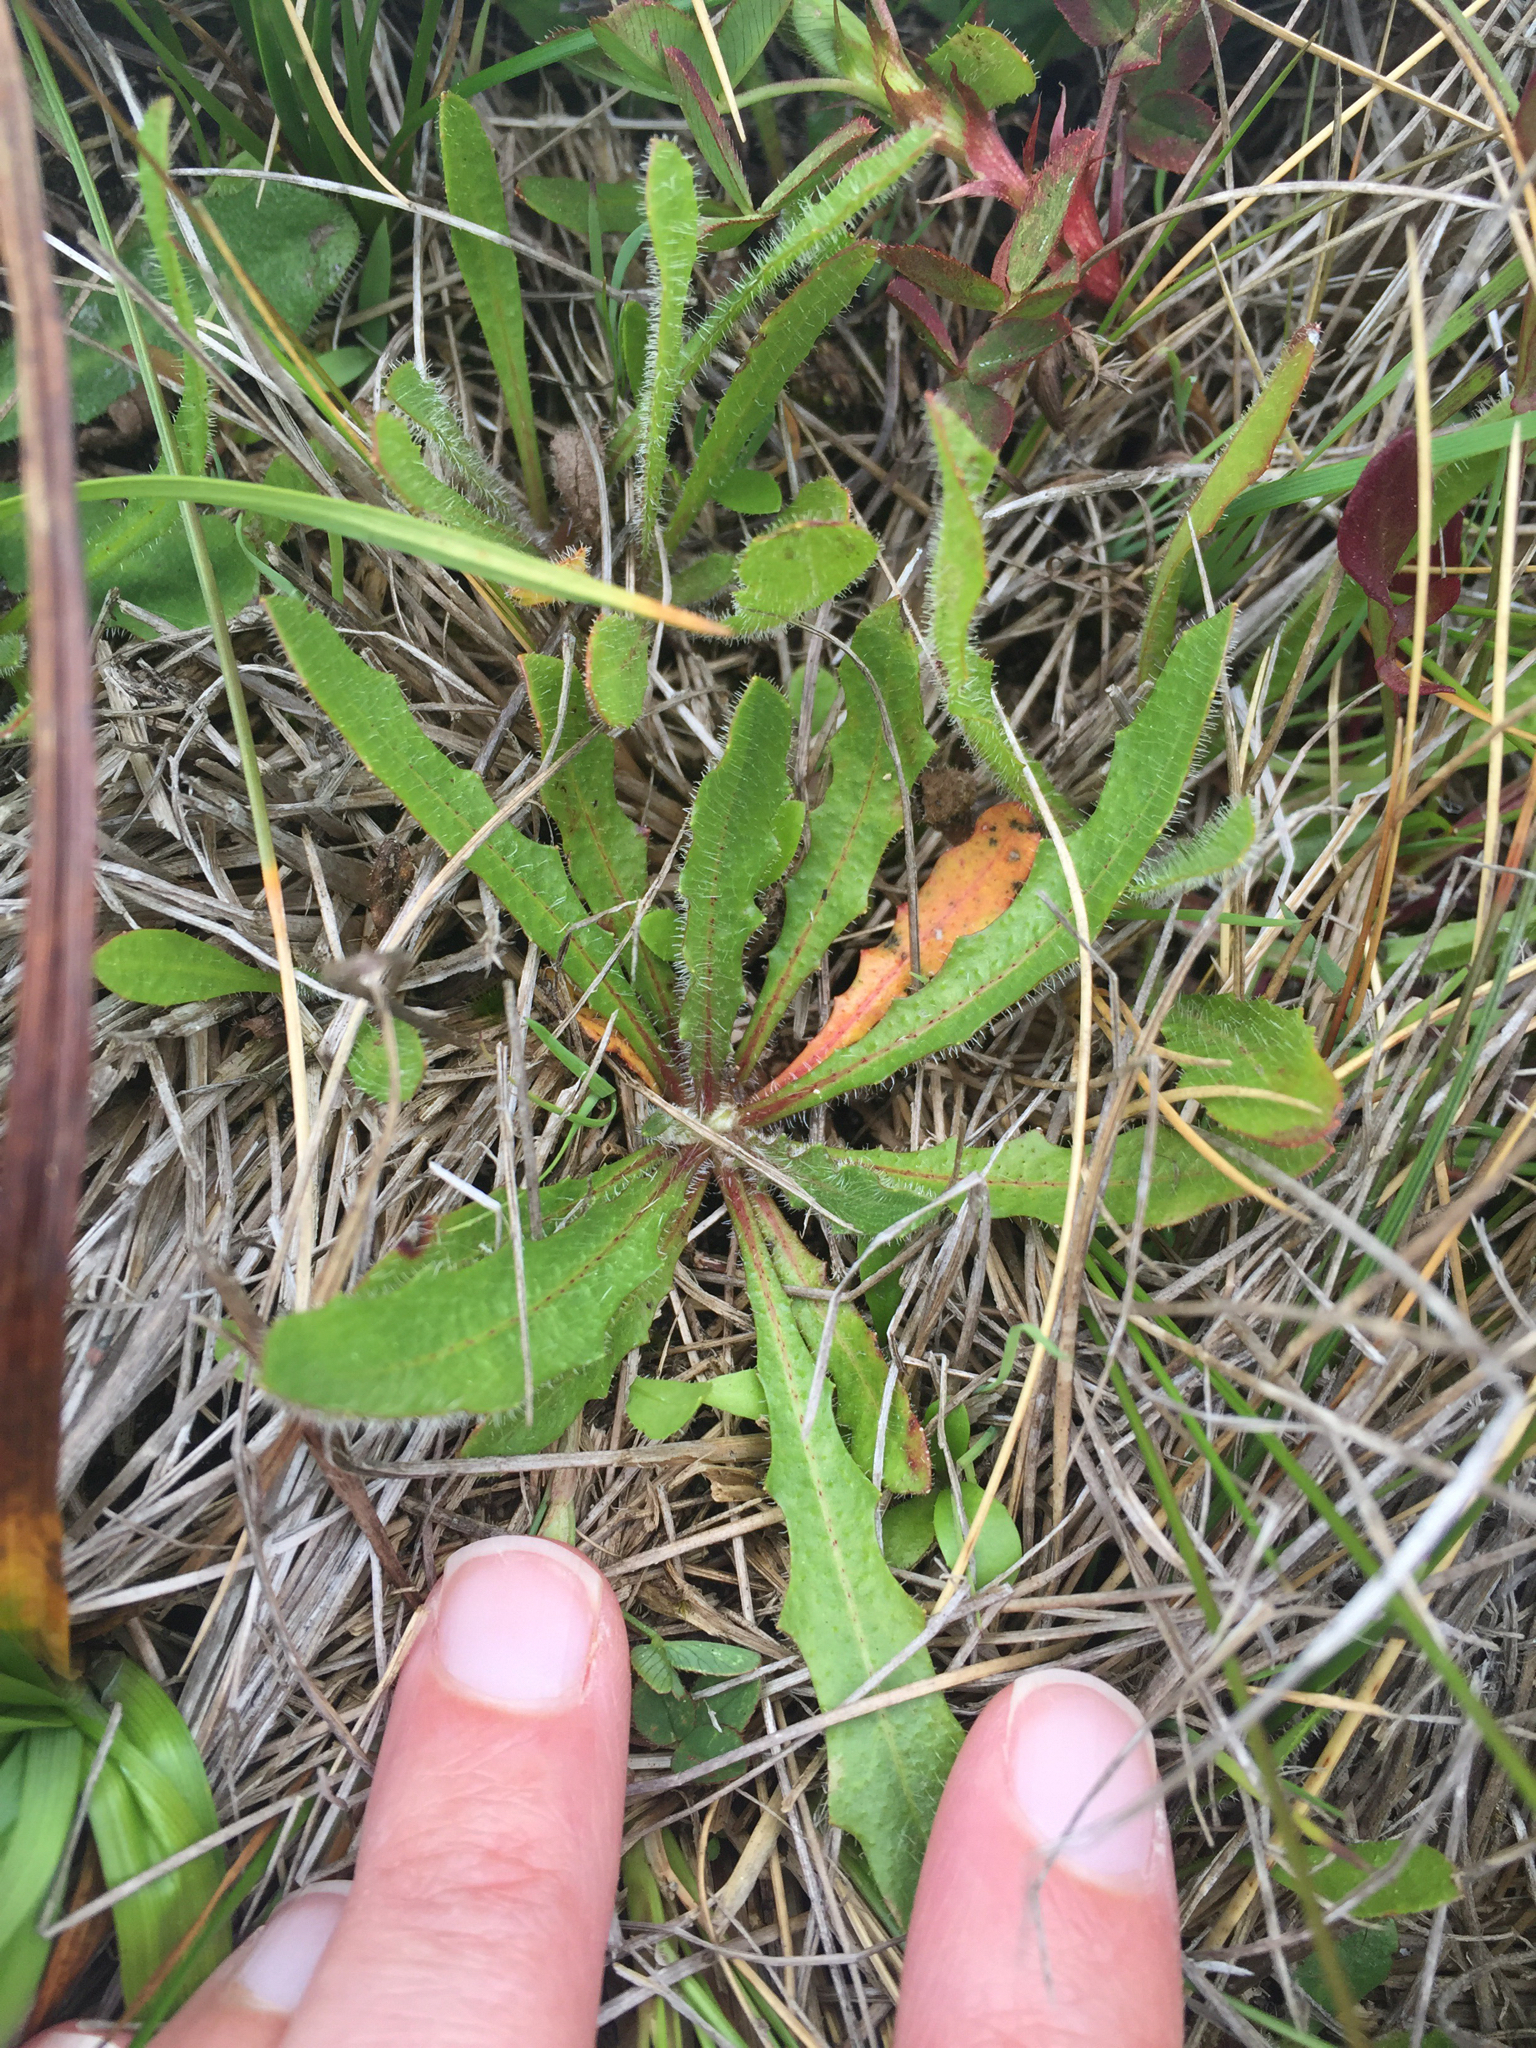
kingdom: Plantae
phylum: Tracheophyta
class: Magnoliopsida
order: Asterales
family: Asteraceae
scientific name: Asteraceae
